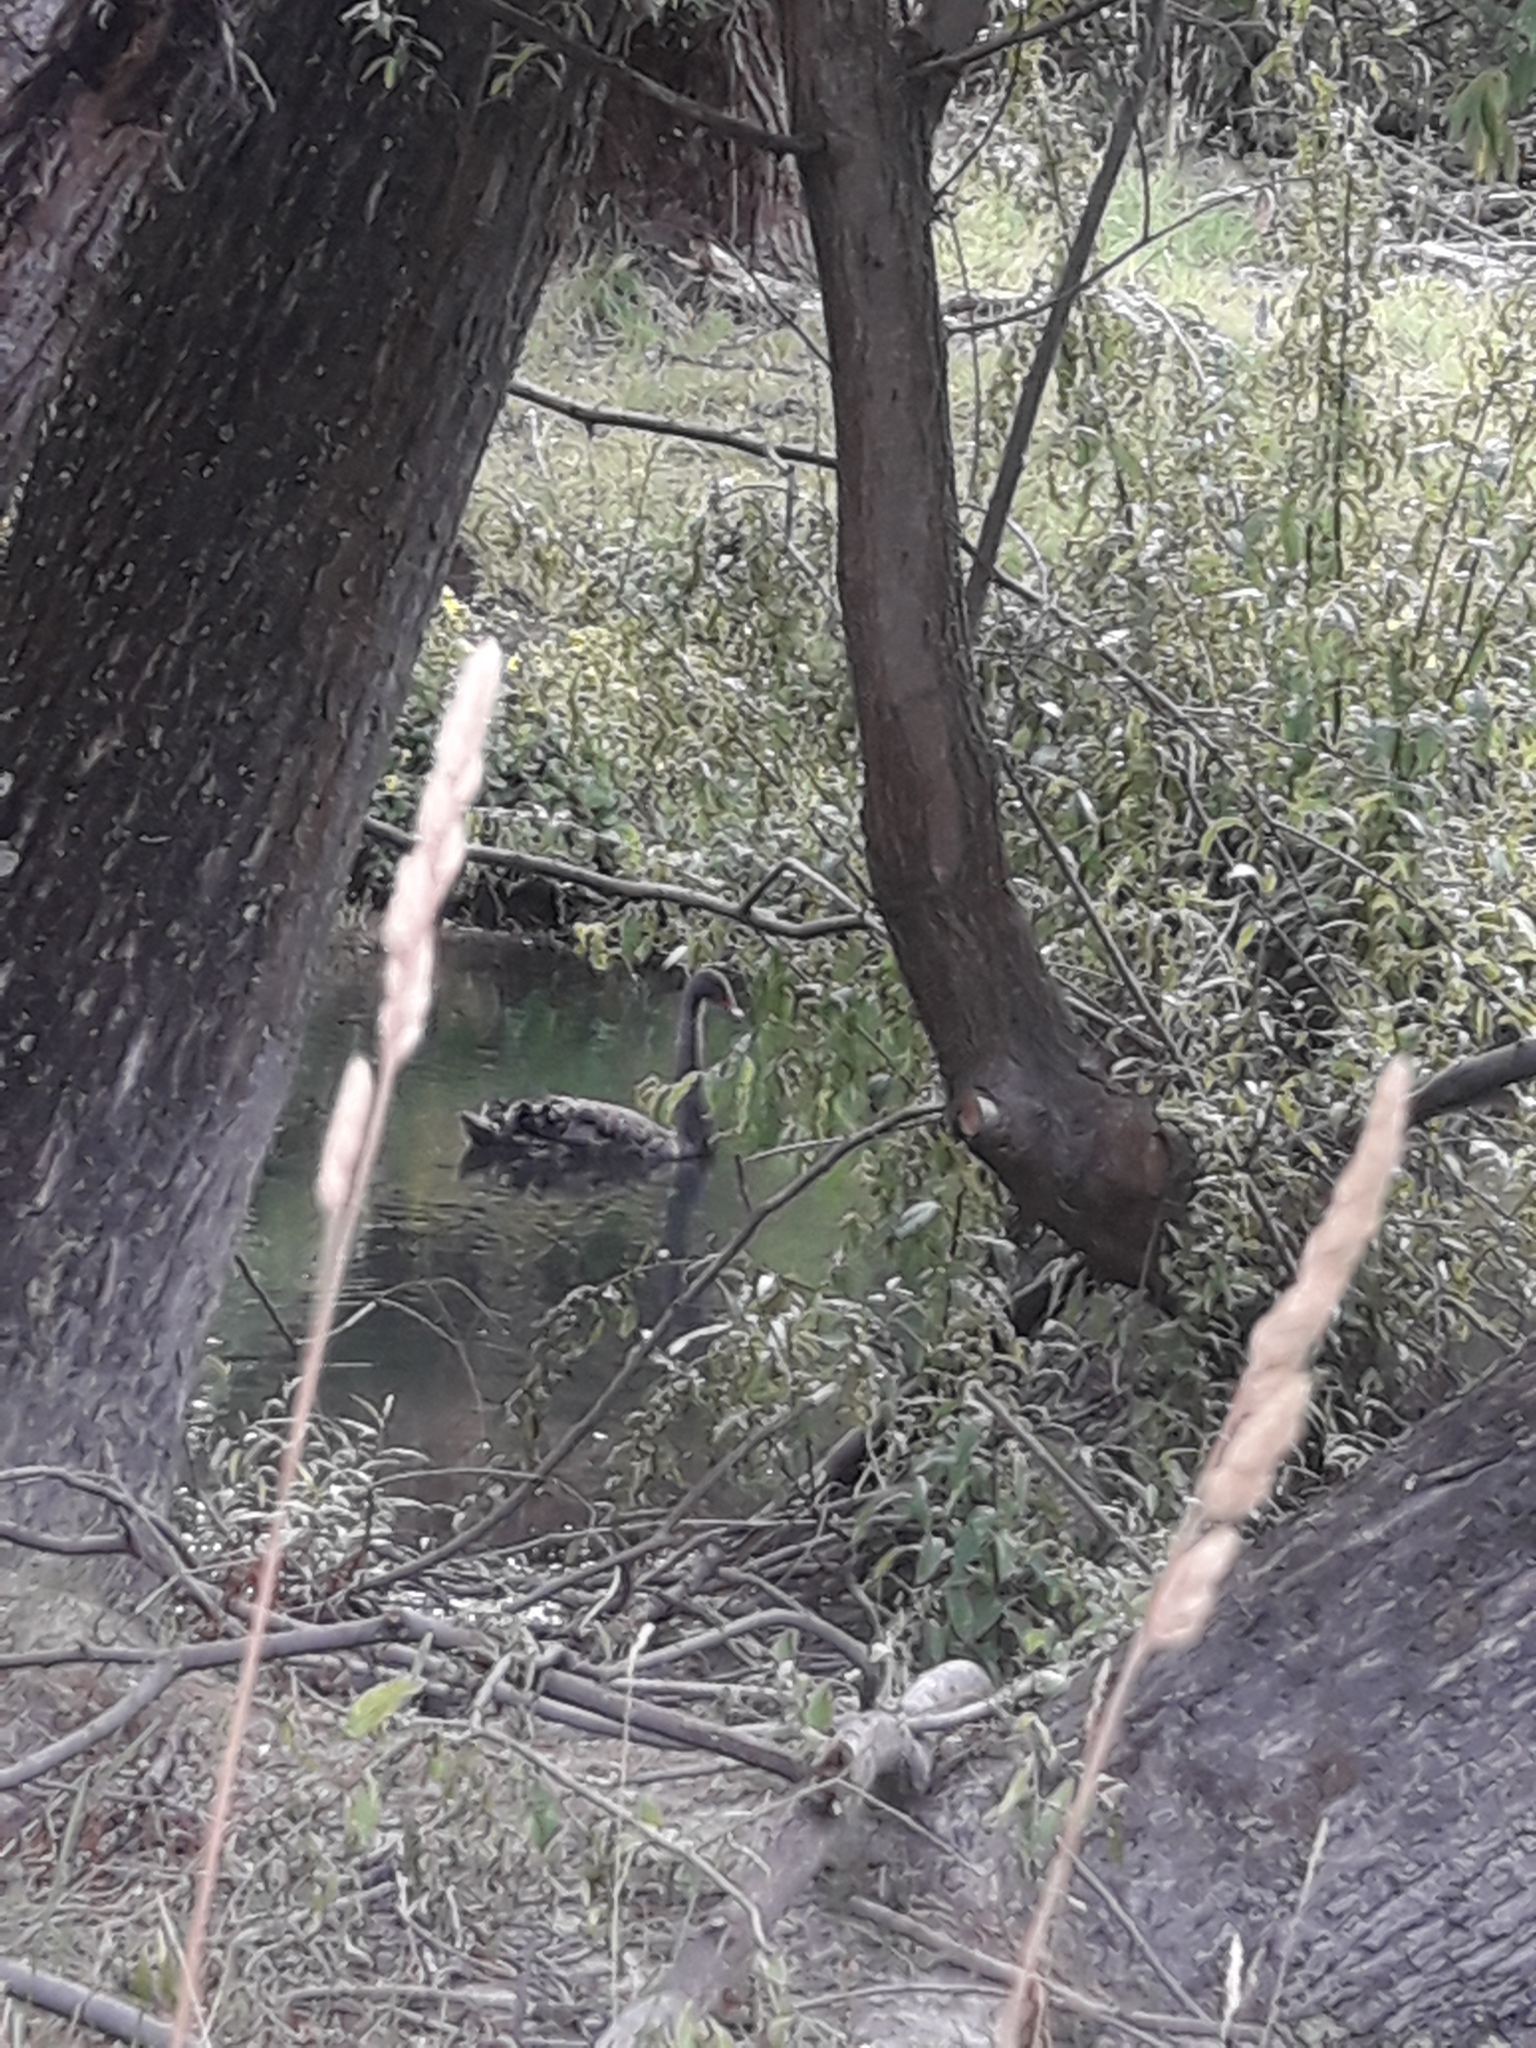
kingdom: Animalia
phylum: Chordata
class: Aves
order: Anseriformes
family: Anatidae
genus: Cygnus
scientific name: Cygnus atratus
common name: Black swan
